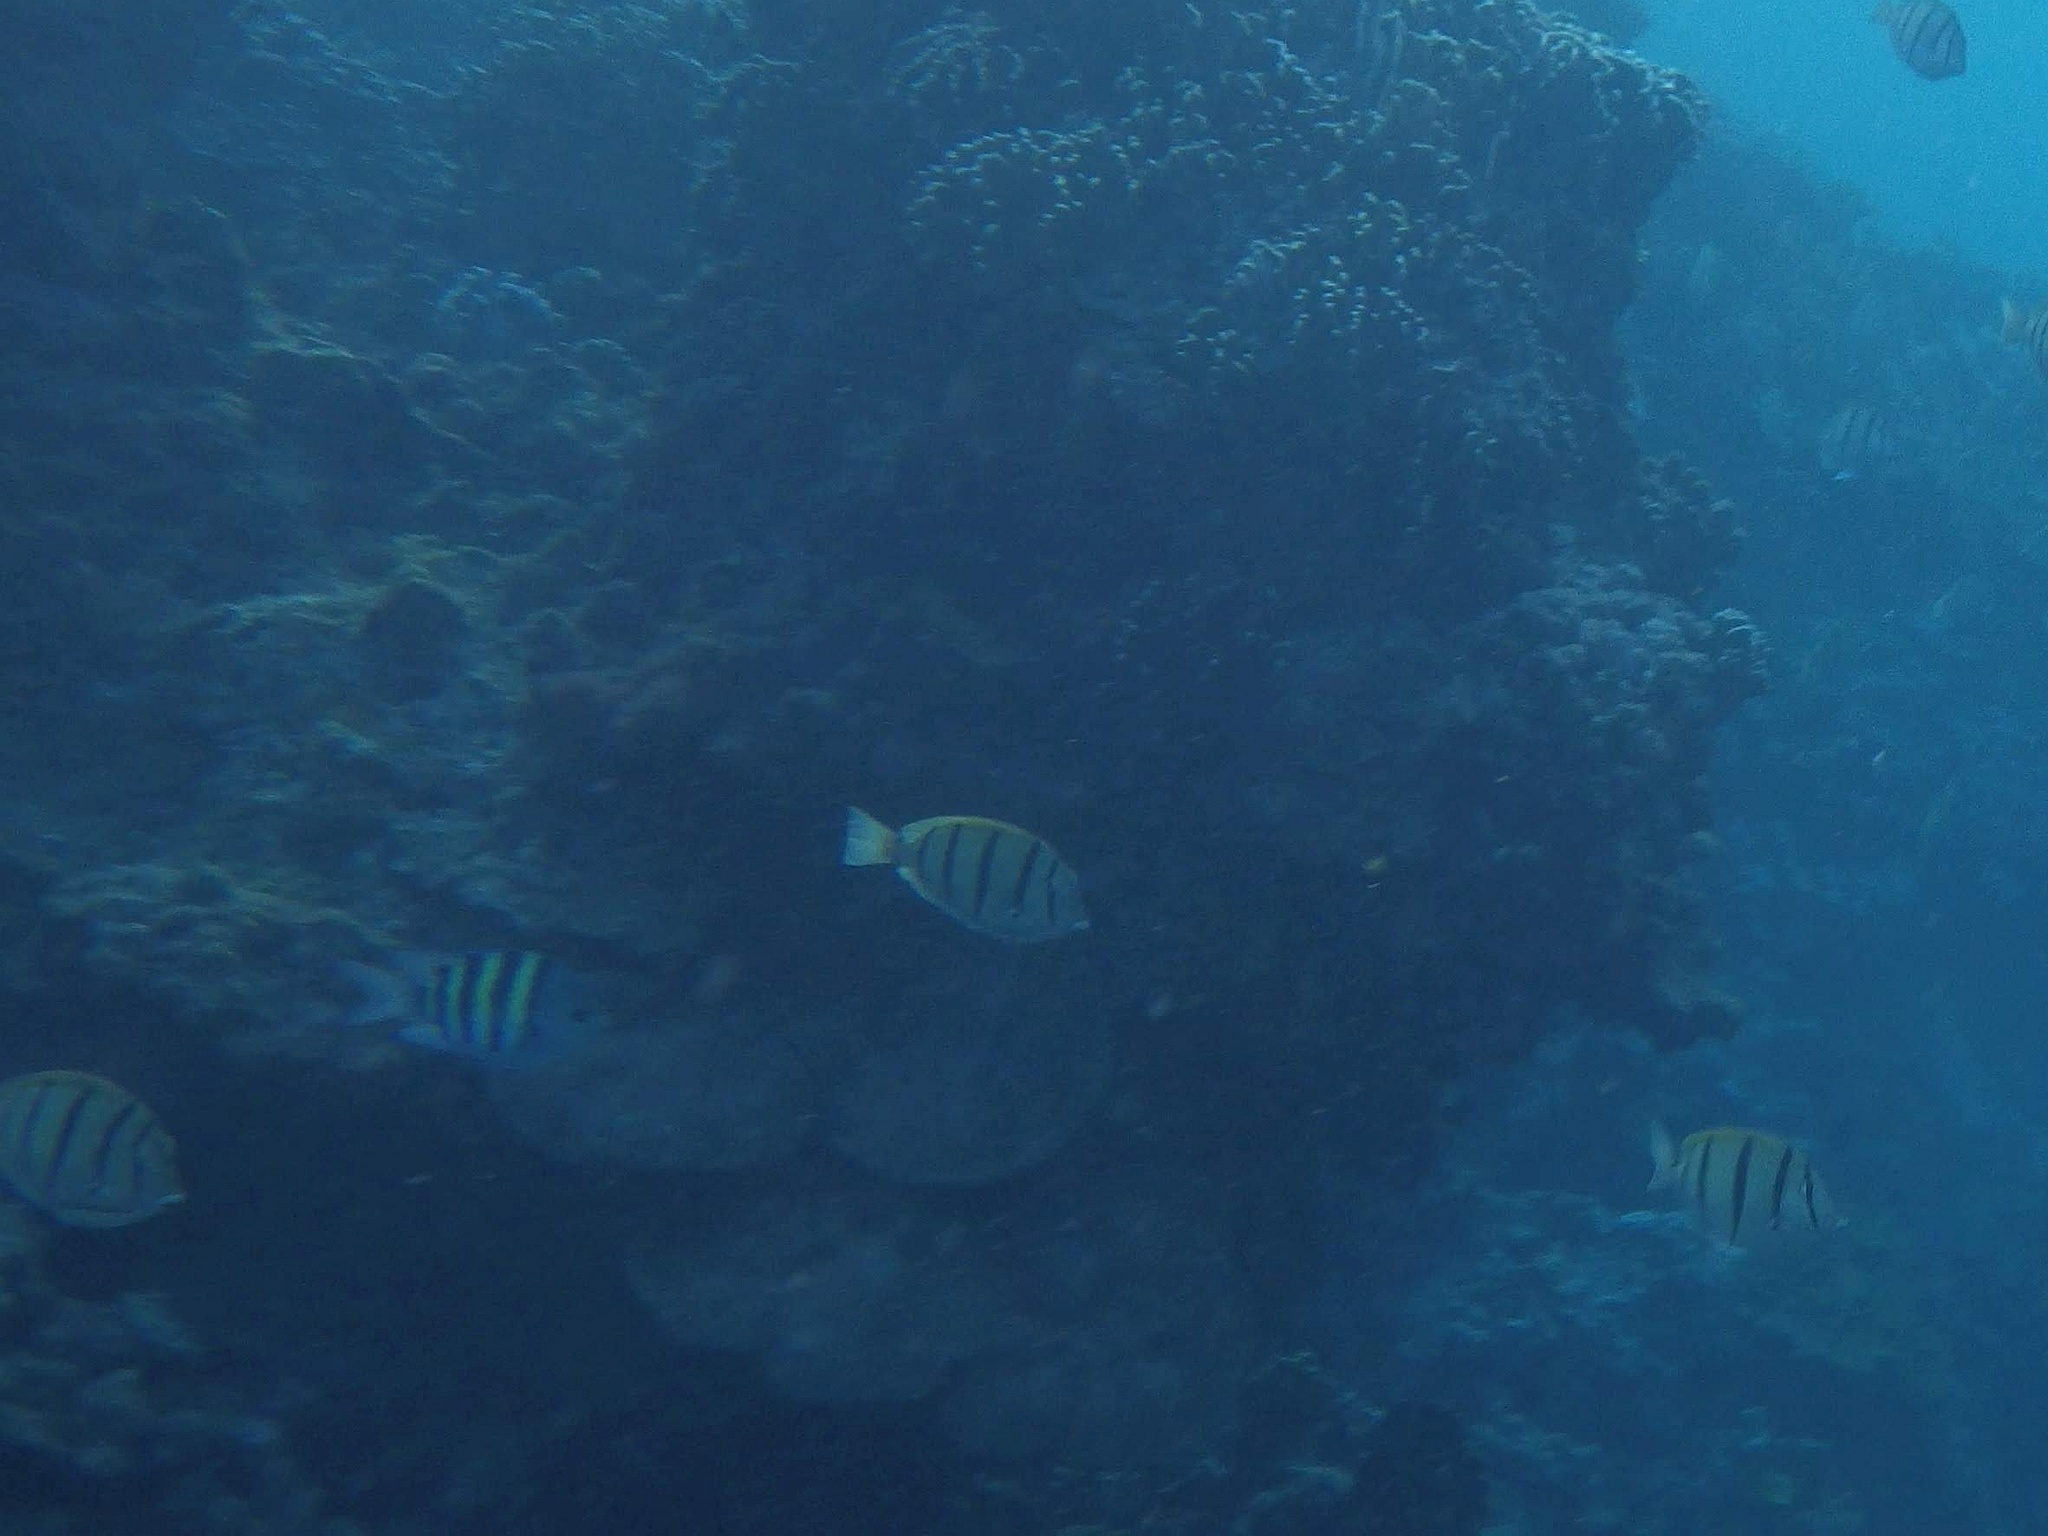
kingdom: Animalia
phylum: Chordata
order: Perciformes
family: Acanthuridae
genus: Acanthurus
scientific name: Acanthurus triostegus
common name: Convict surgeonfish
